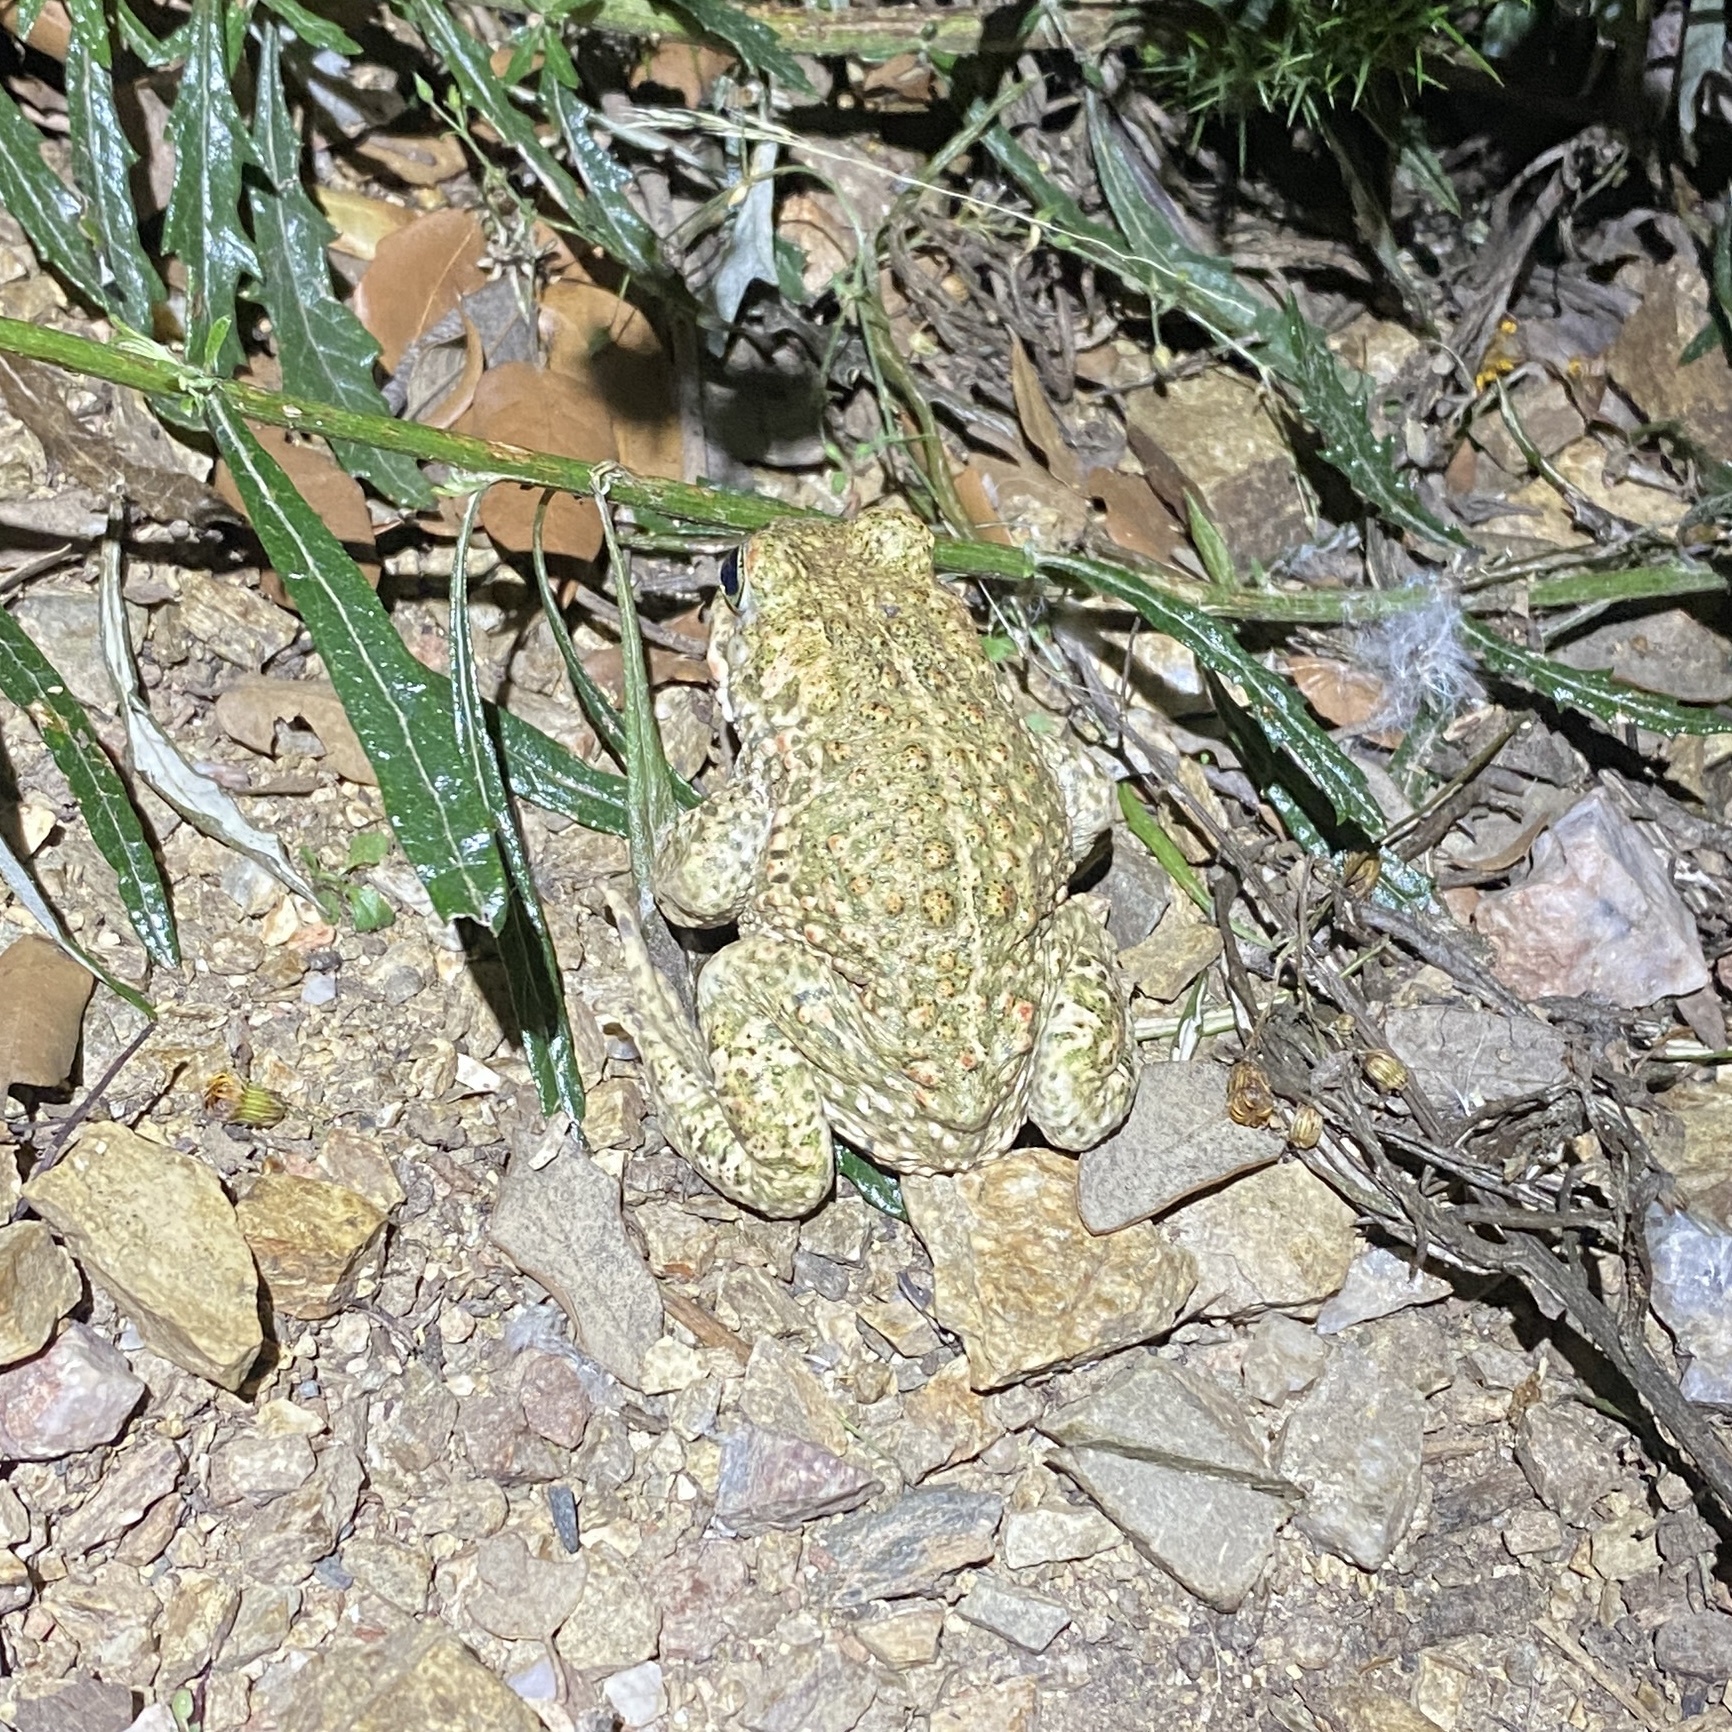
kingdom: Animalia
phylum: Chordata
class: Amphibia
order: Anura
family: Bufonidae
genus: Epidalea
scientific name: Epidalea calamita
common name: Natterjack toad
